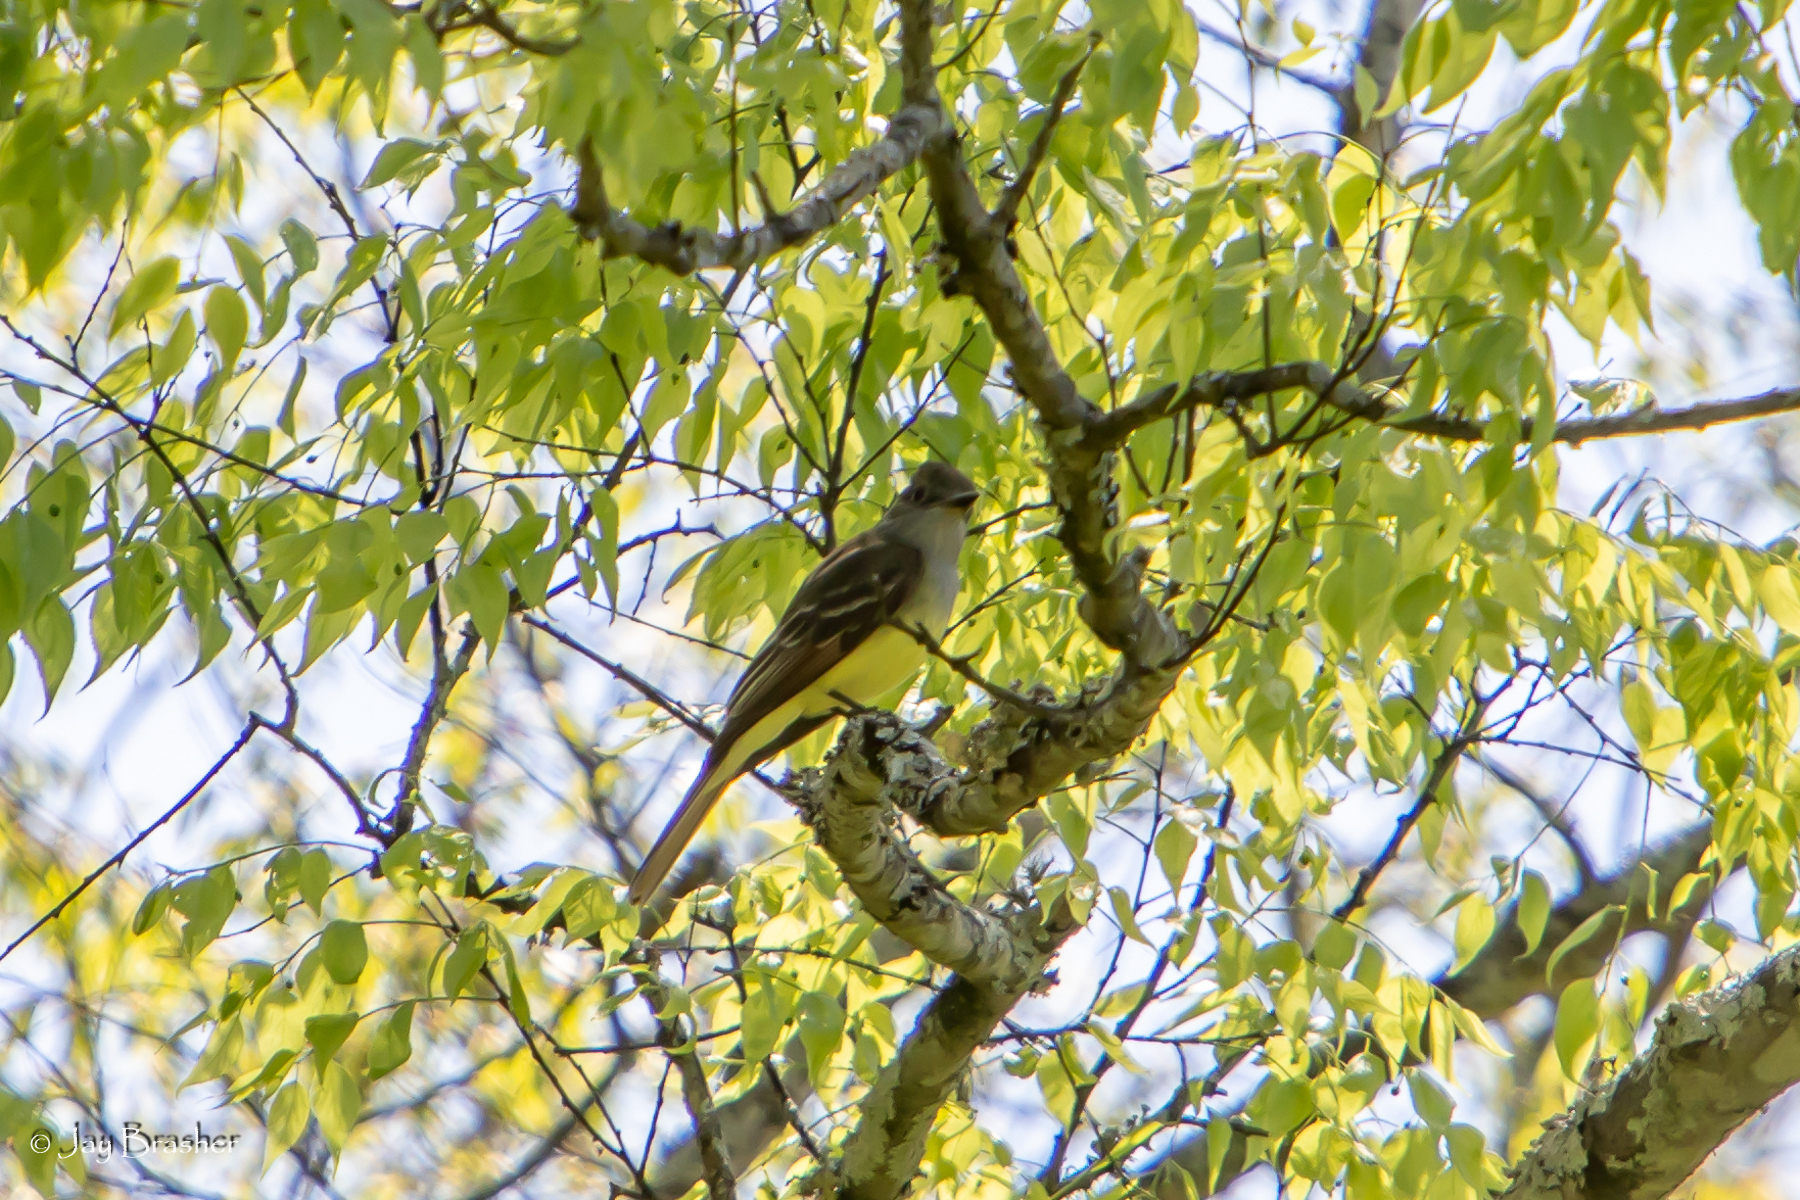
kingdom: Animalia
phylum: Chordata
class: Aves
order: Passeriformes
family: Tyrannidae
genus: Myiarchus
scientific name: Myiarchus crinitus
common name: Great crested flycatcher
